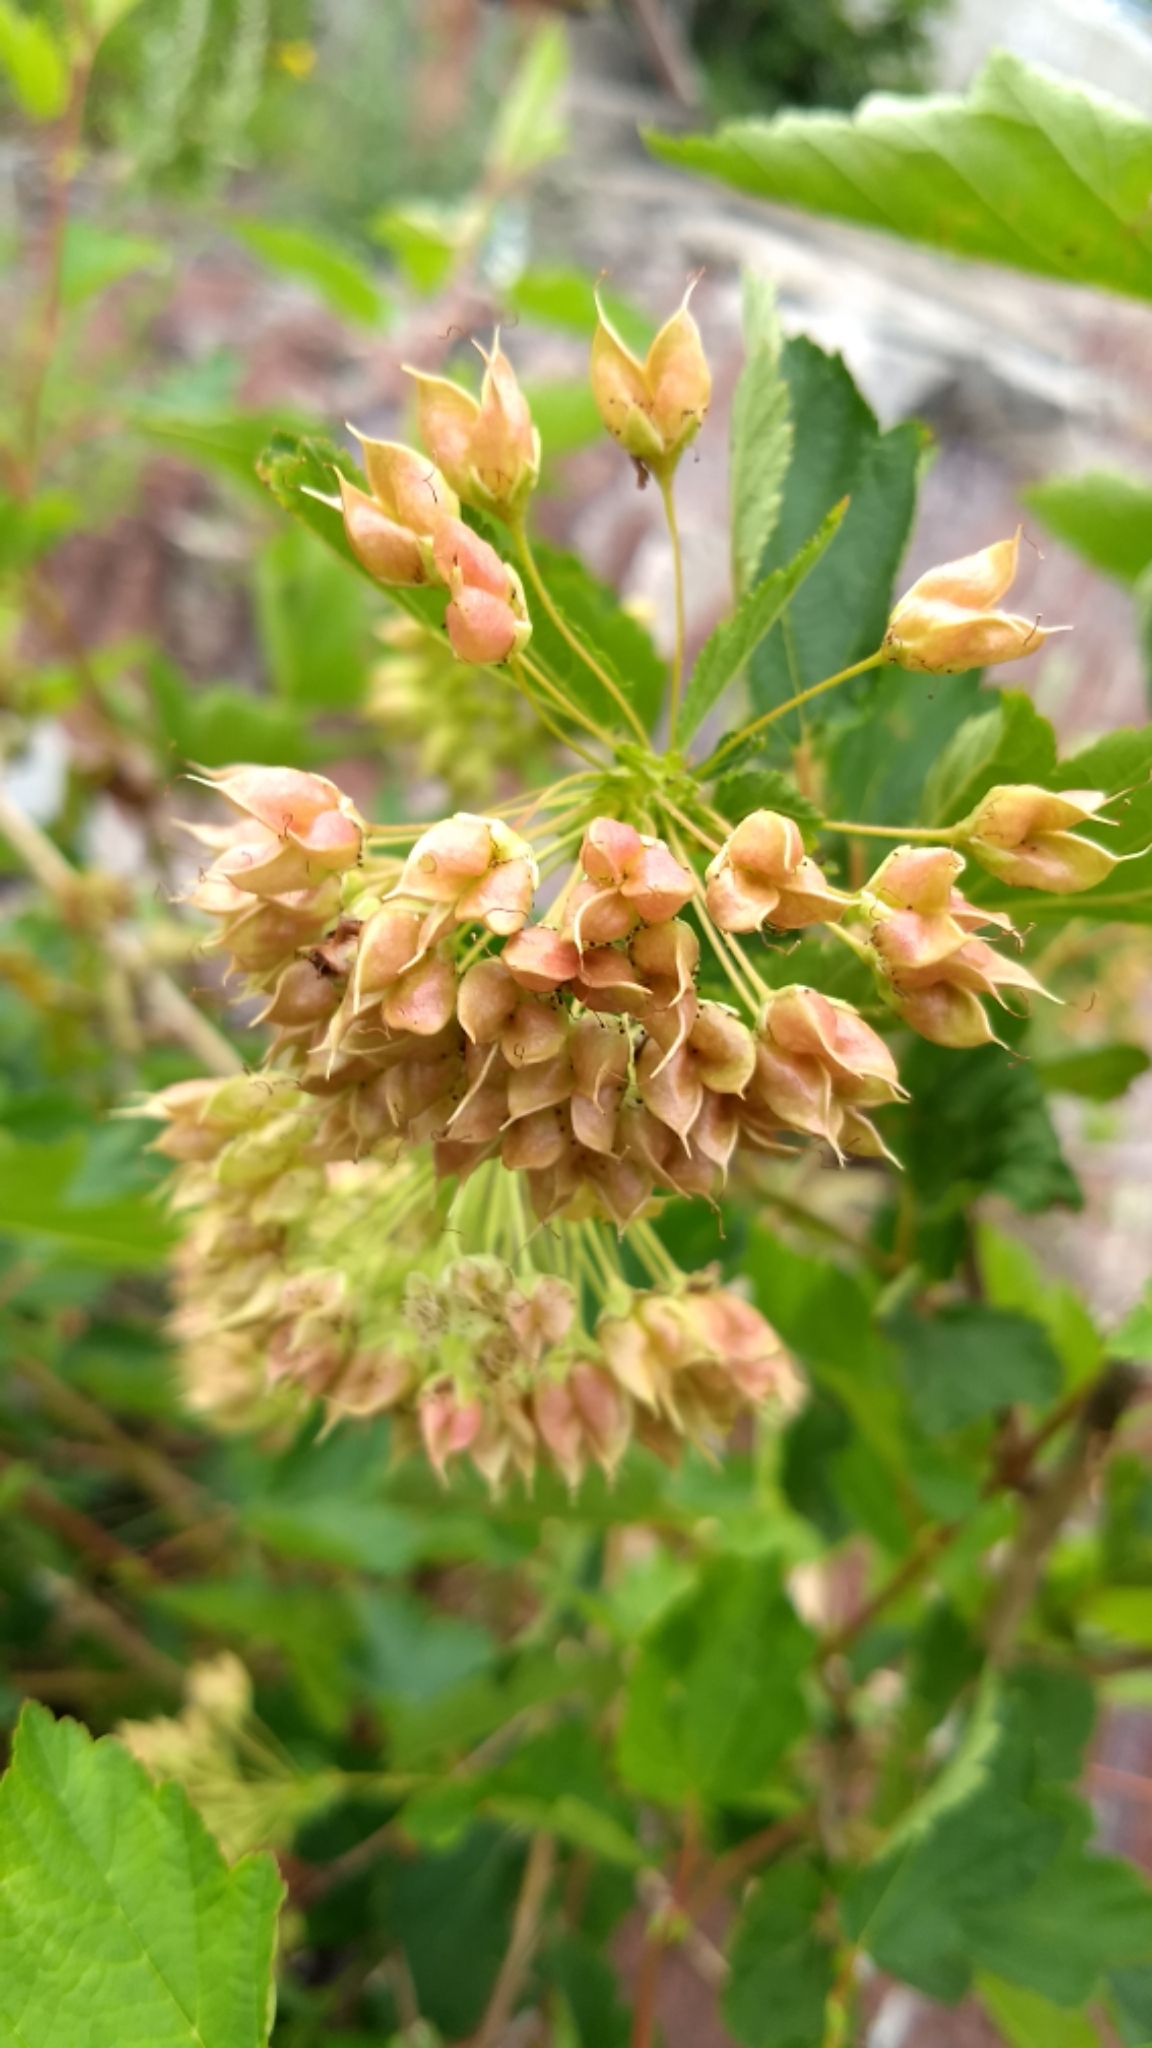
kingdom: Plantae
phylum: Tracheophyta
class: Magnoliopsida
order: Rosales
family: Rosaceae
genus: Physocarpus
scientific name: Physocarpus opulifolius
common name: Ninebark
